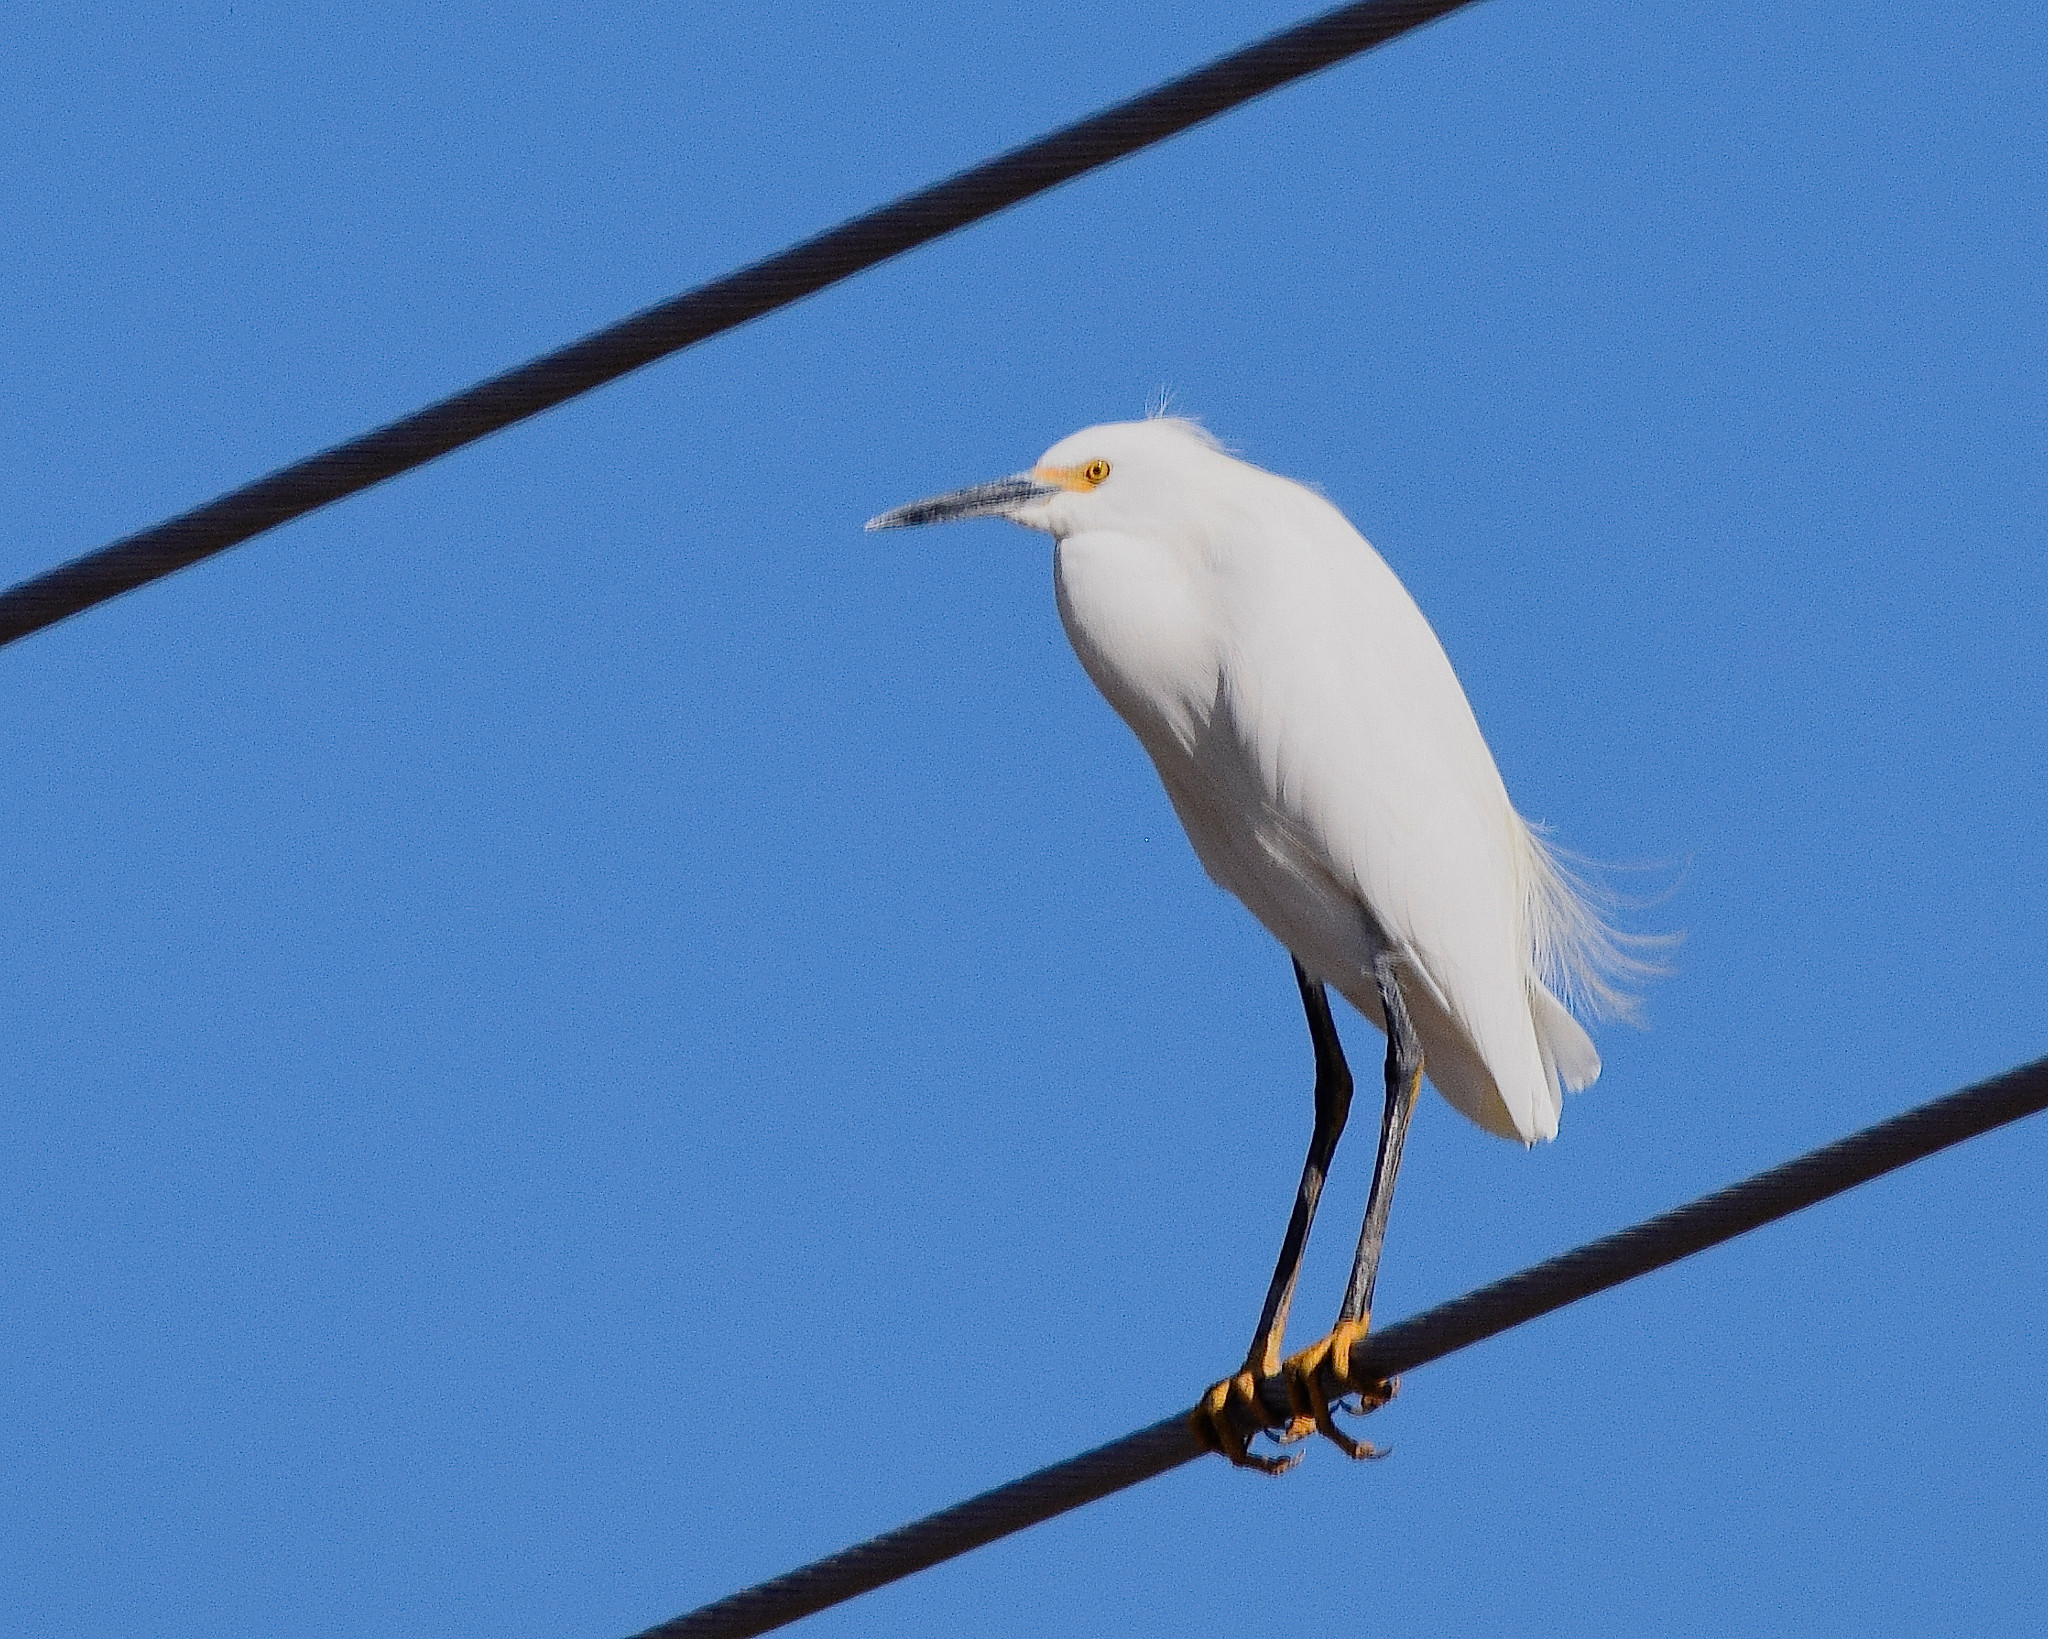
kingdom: Animalia
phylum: Chordata
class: Aves
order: Pelecaniformes
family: Ardeidae
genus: Egretta
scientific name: Egretta thula
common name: Snowy egret
